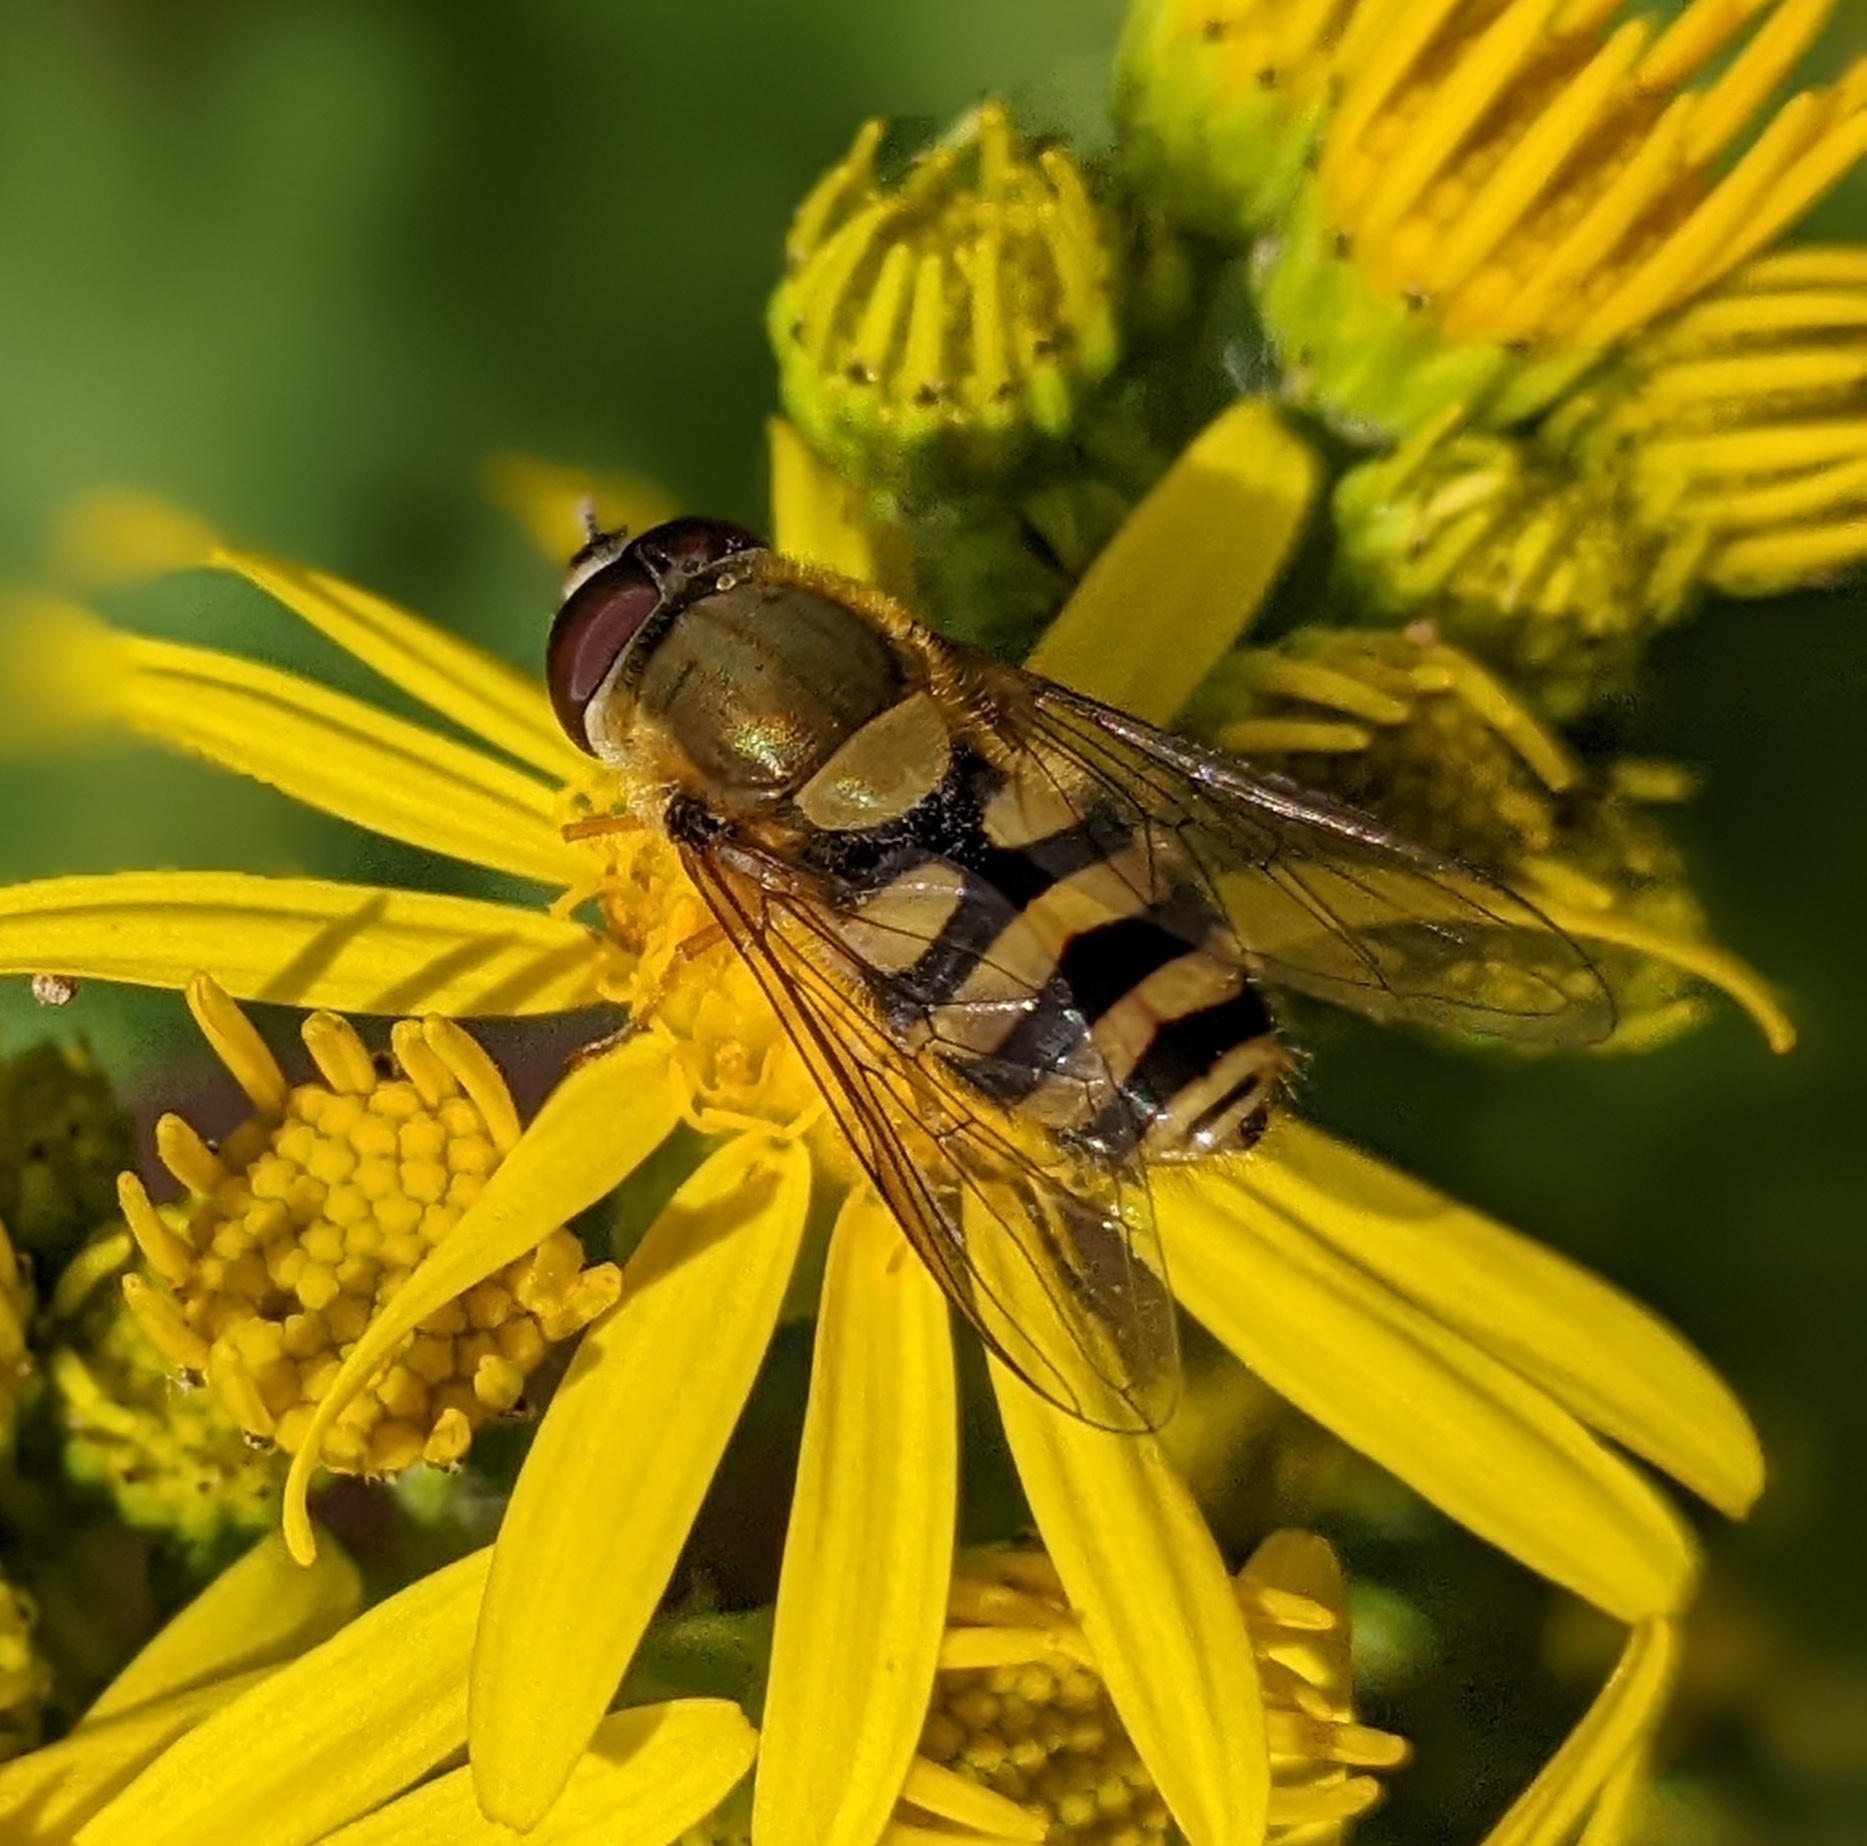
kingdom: Animalia
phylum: Arthropoda
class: Insecta
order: Diptera
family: Syrphidae
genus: Syrphus
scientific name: Syrphus
